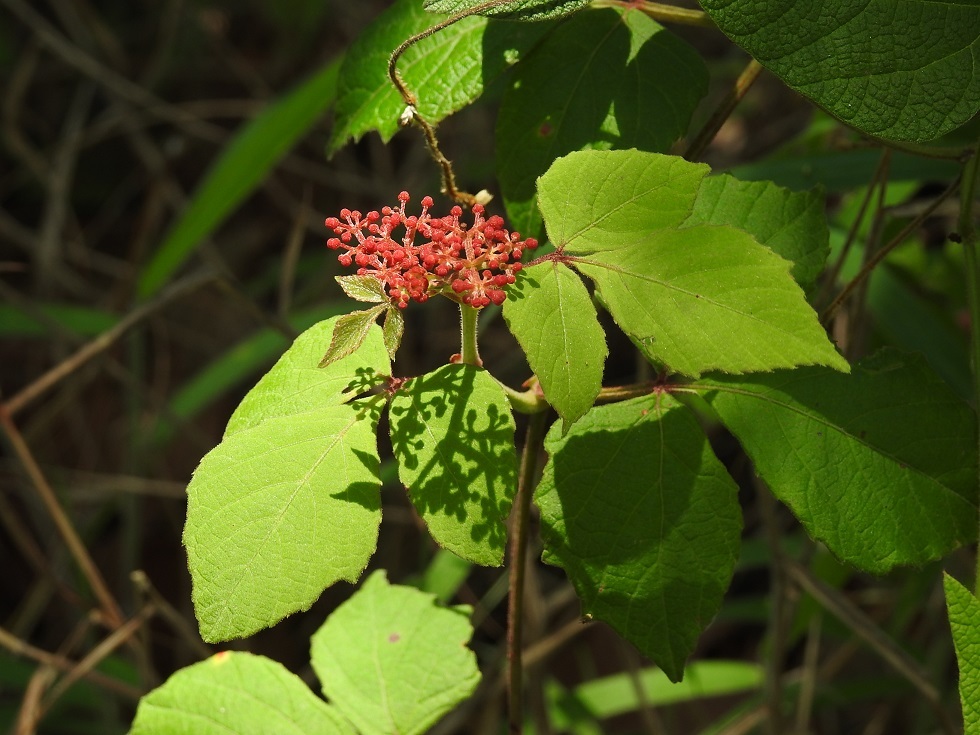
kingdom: Plantae
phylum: Tracheophyta
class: Magnoliopsida
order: Vitales
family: Vitaceae
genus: Cissus
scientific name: Cissus microcarpa
